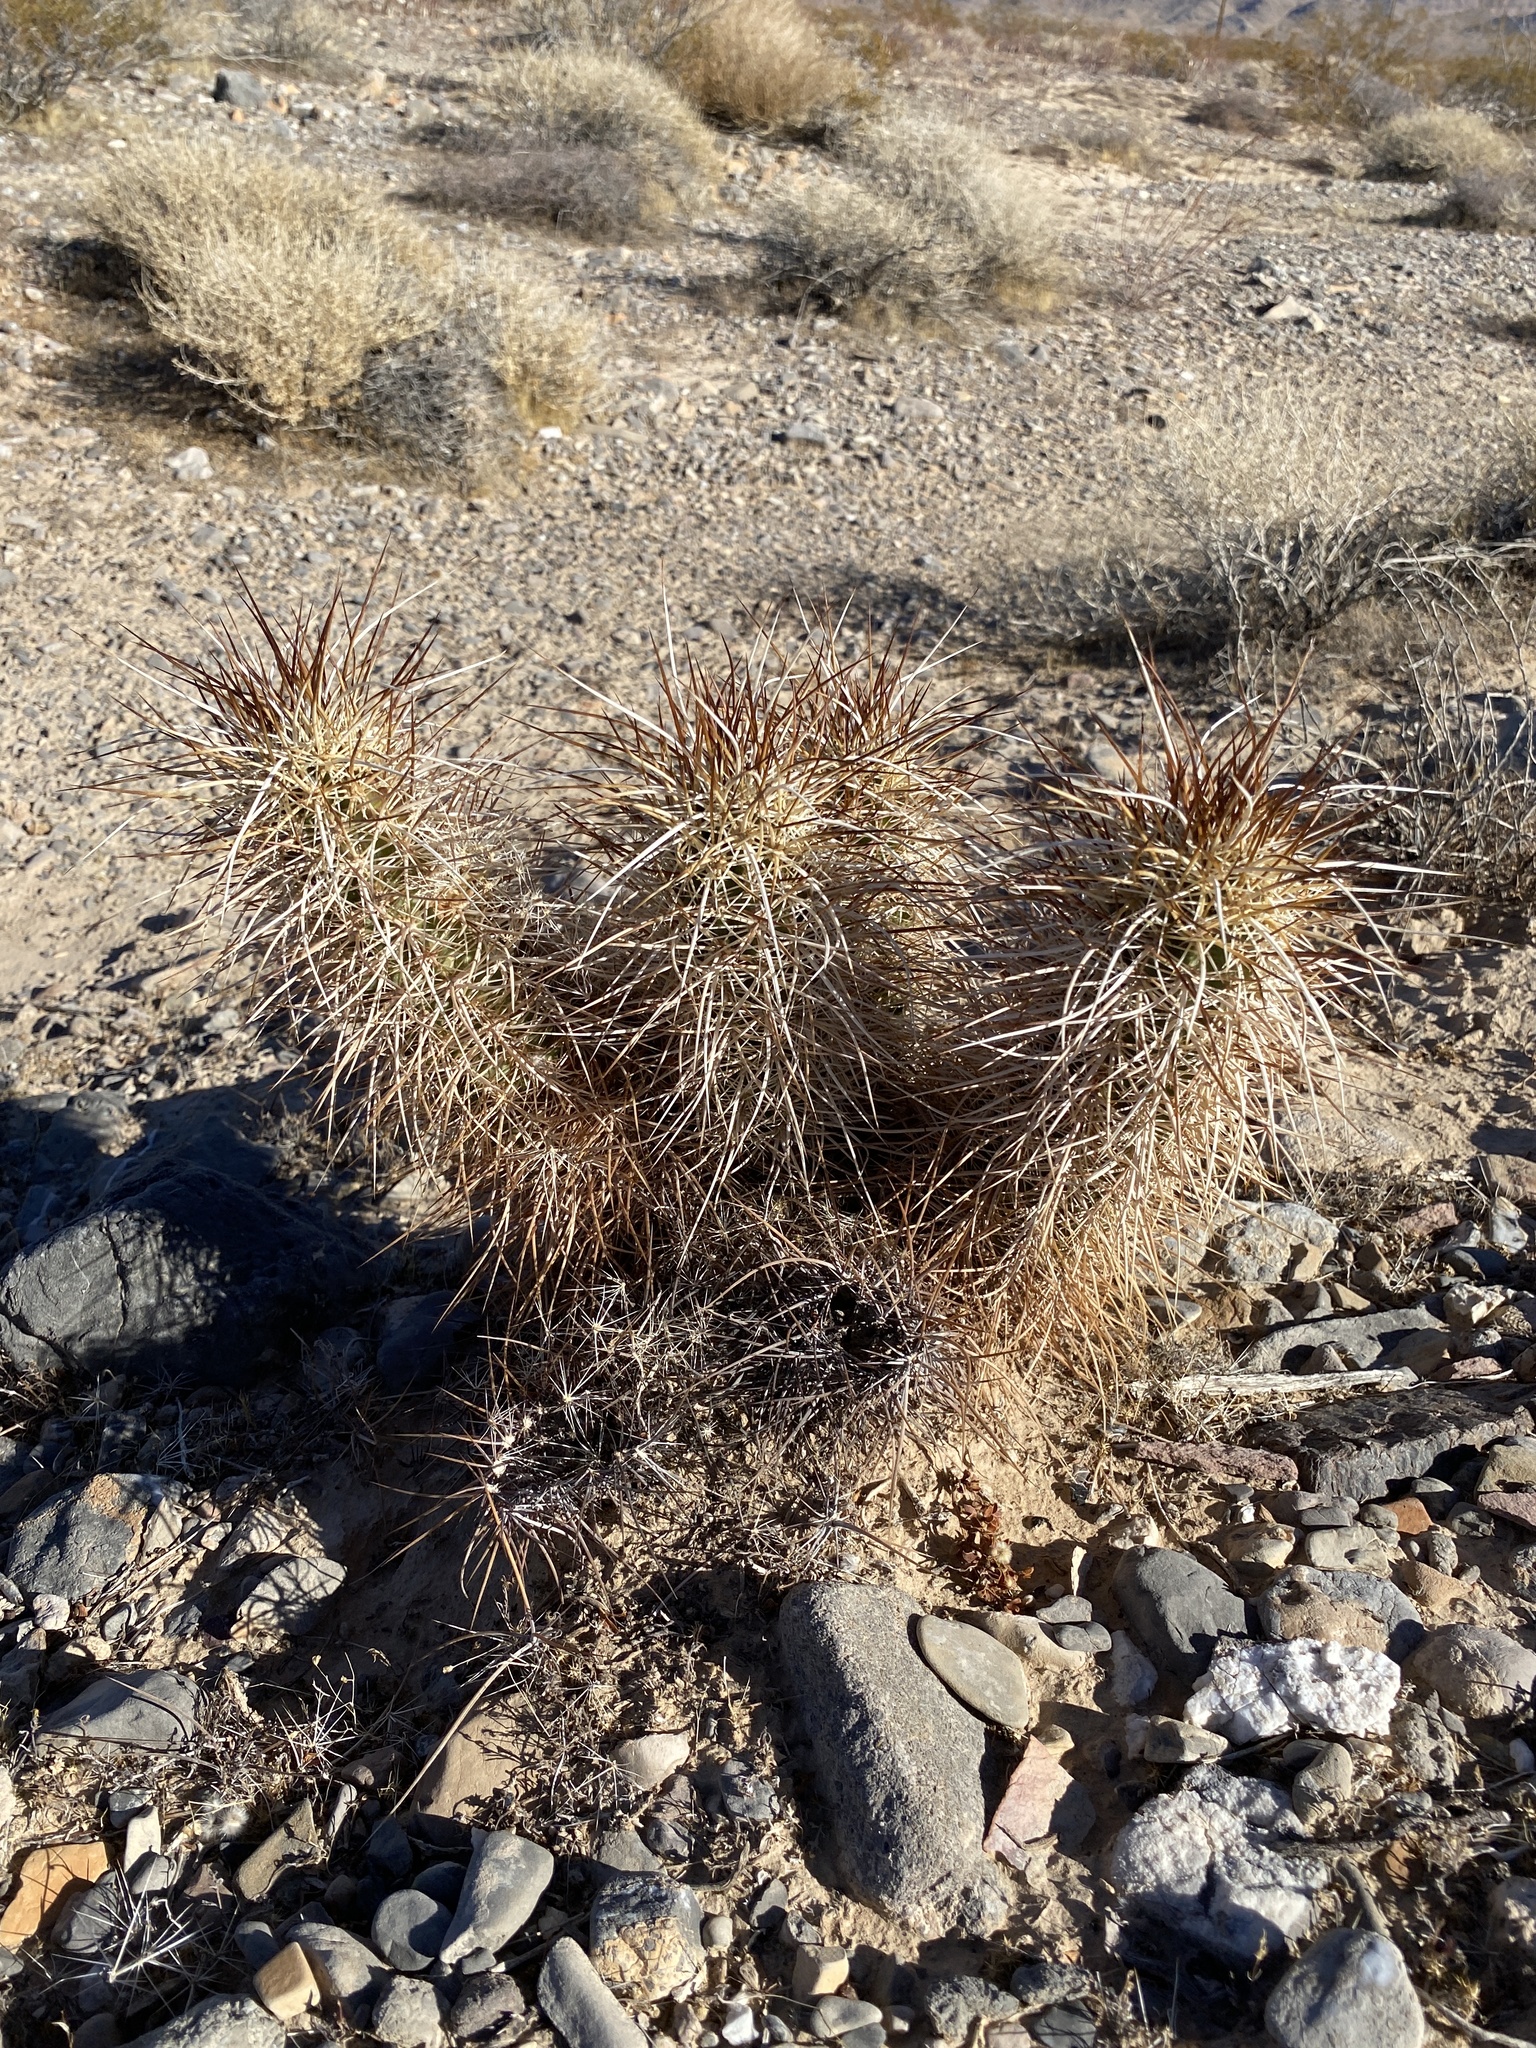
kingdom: Plantae
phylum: Tracheophyta
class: Magnoliopsida
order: Caryophyllales
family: Cactaceae
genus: Echinocereus
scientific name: Echinocereus engelmannii
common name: Engelmann's hedgehog cactus
